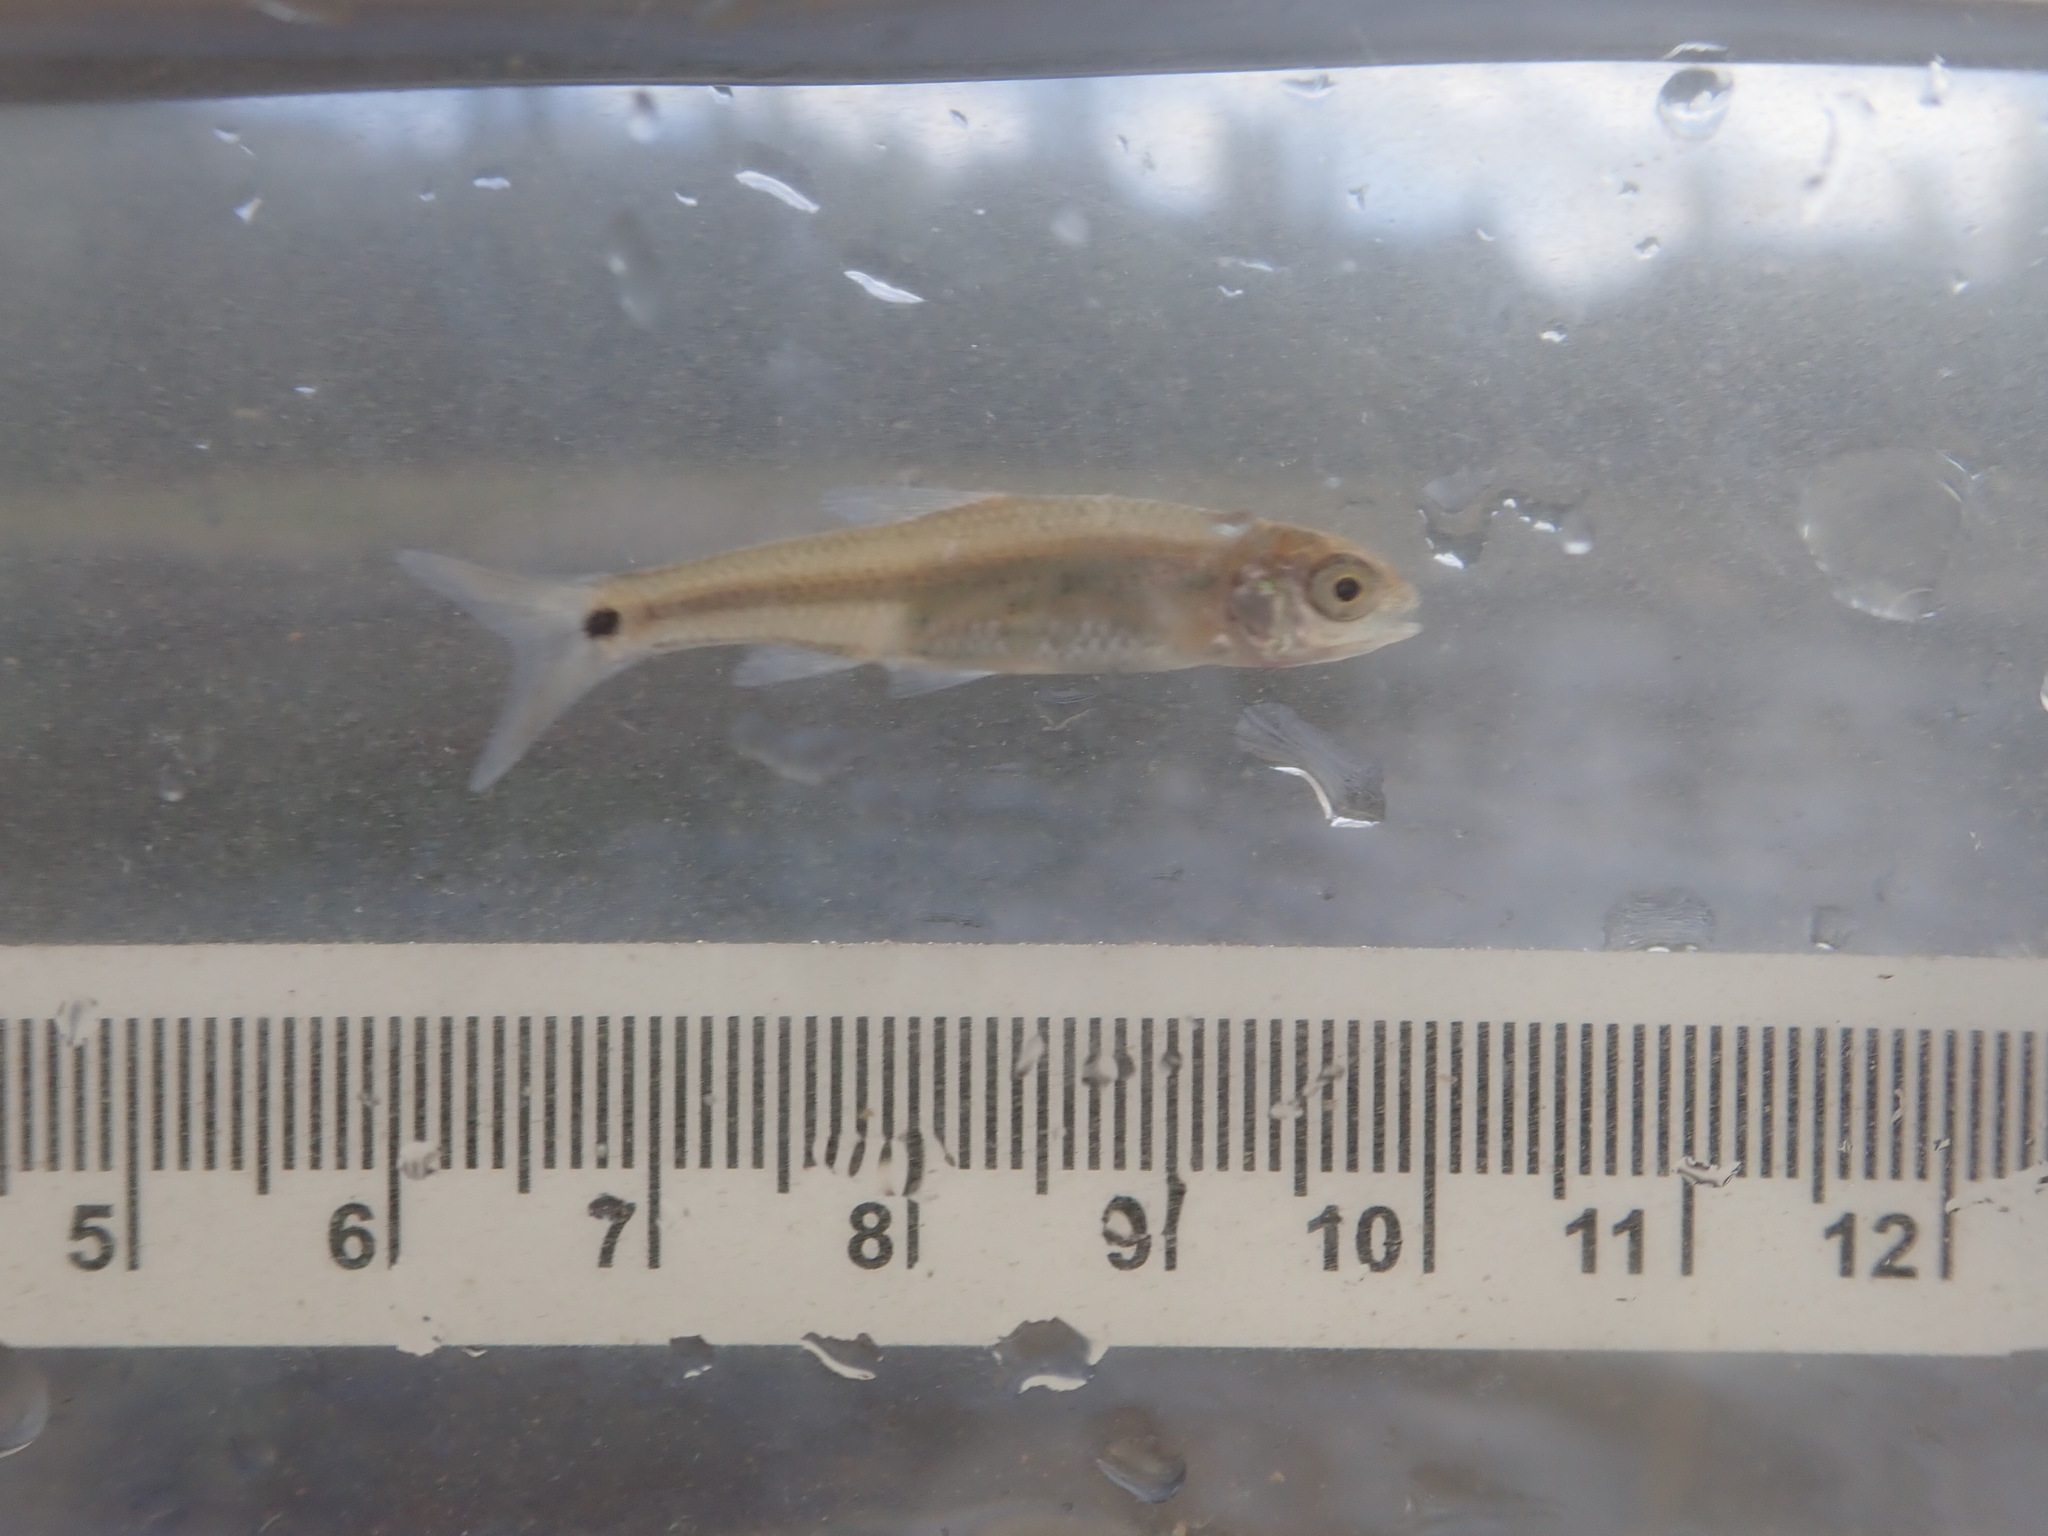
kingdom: Animalia
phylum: Chordata
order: Cypriniformes
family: Cyprinidae
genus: Notropis
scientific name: Notropis
